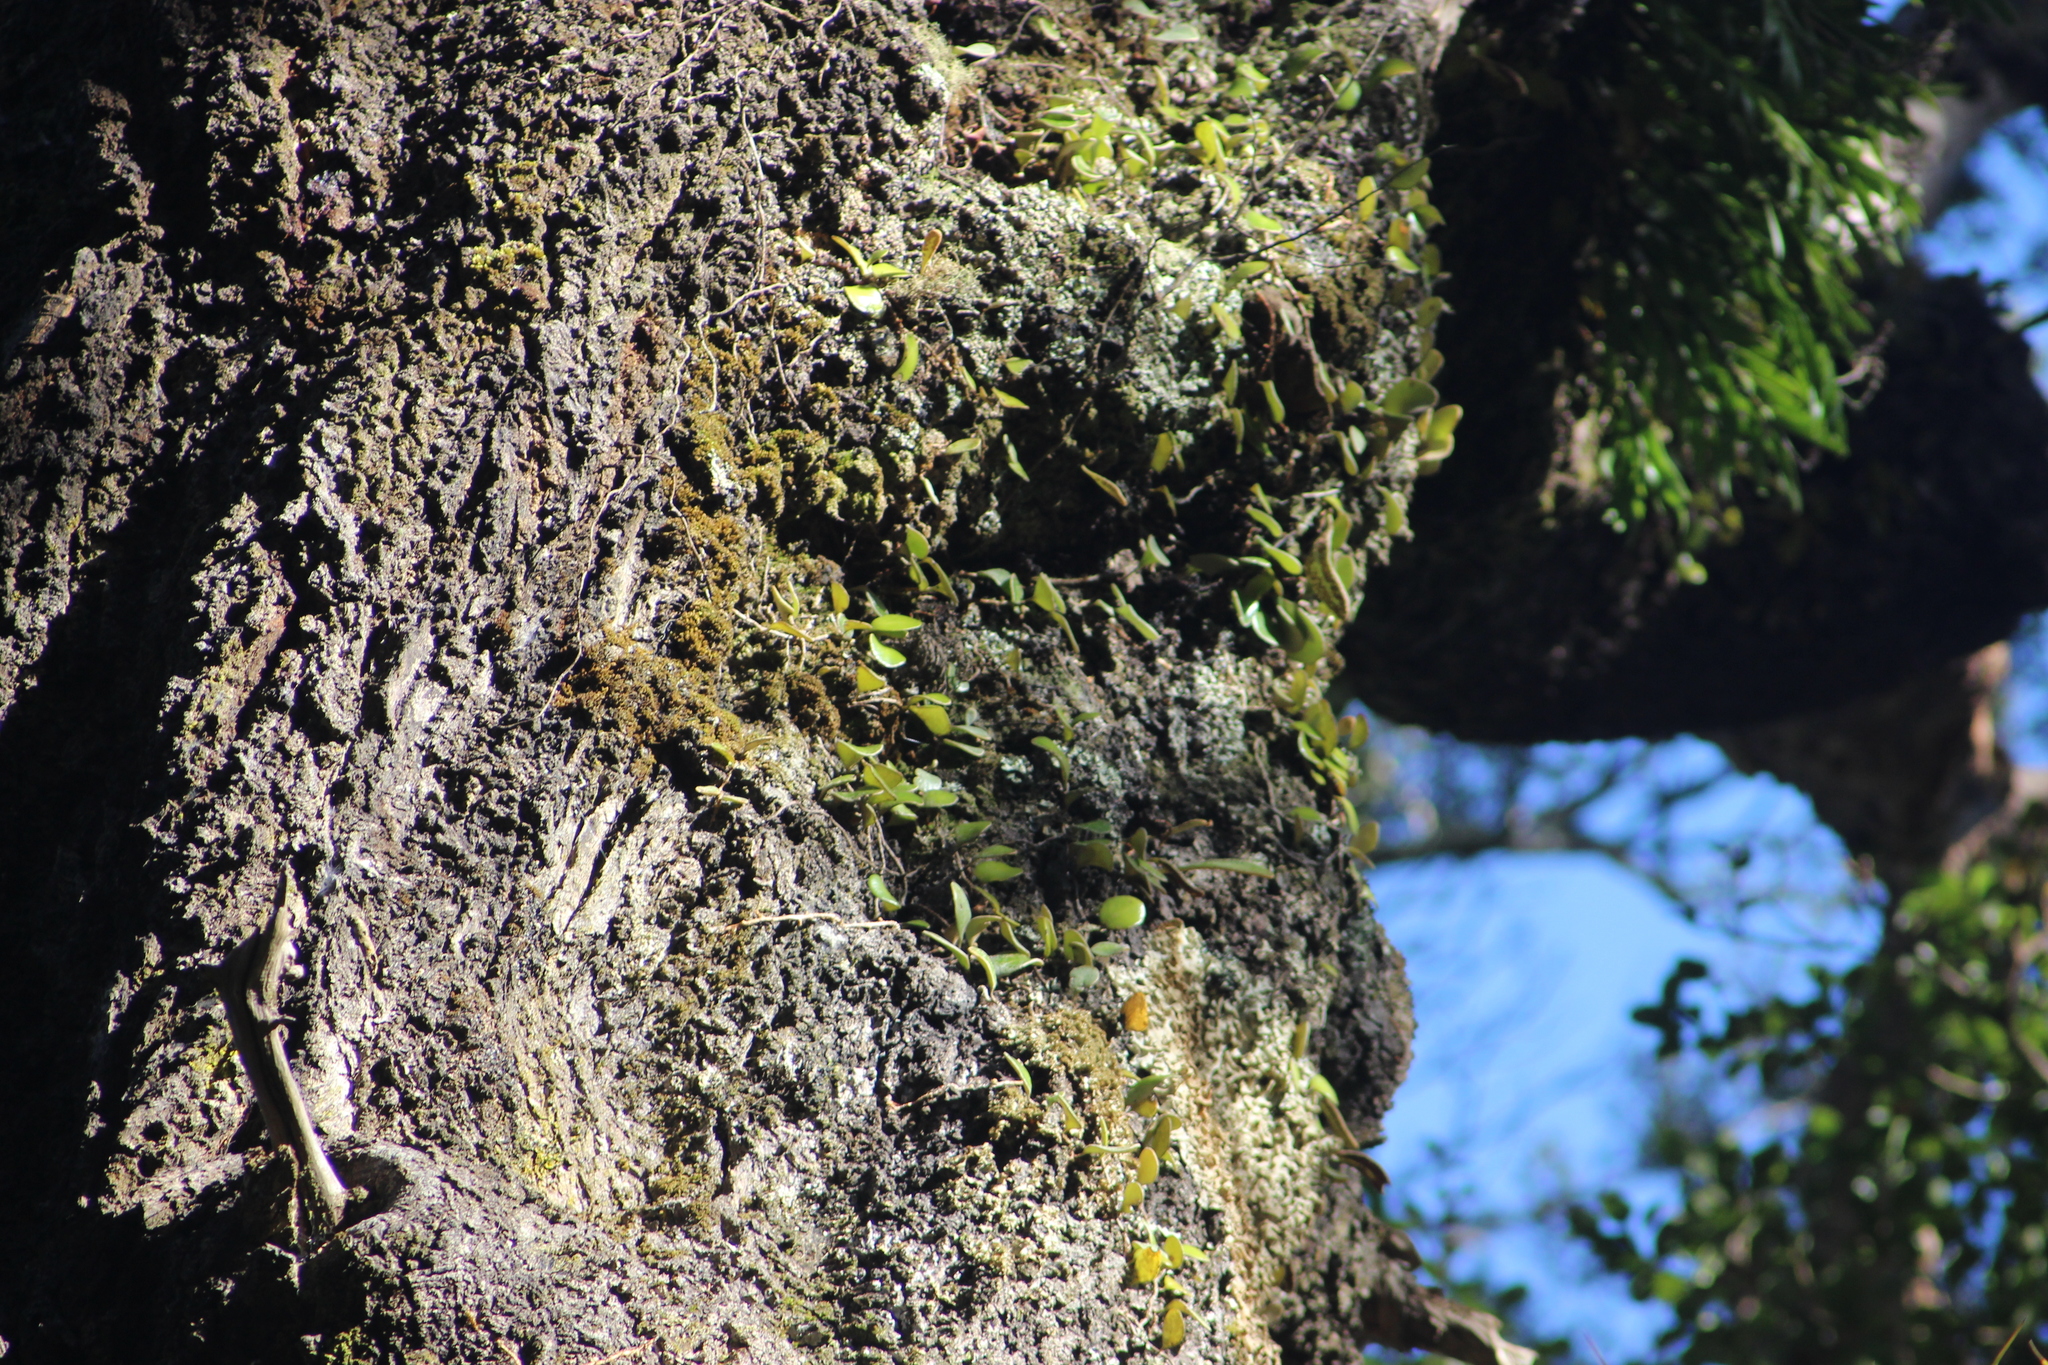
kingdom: Plantae
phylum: Tracheophyta
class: Polypodiopsida
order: Polypodiales
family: Polypodiaceae
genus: Pyrrosia
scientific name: Pyrrosia eleagnifolia
